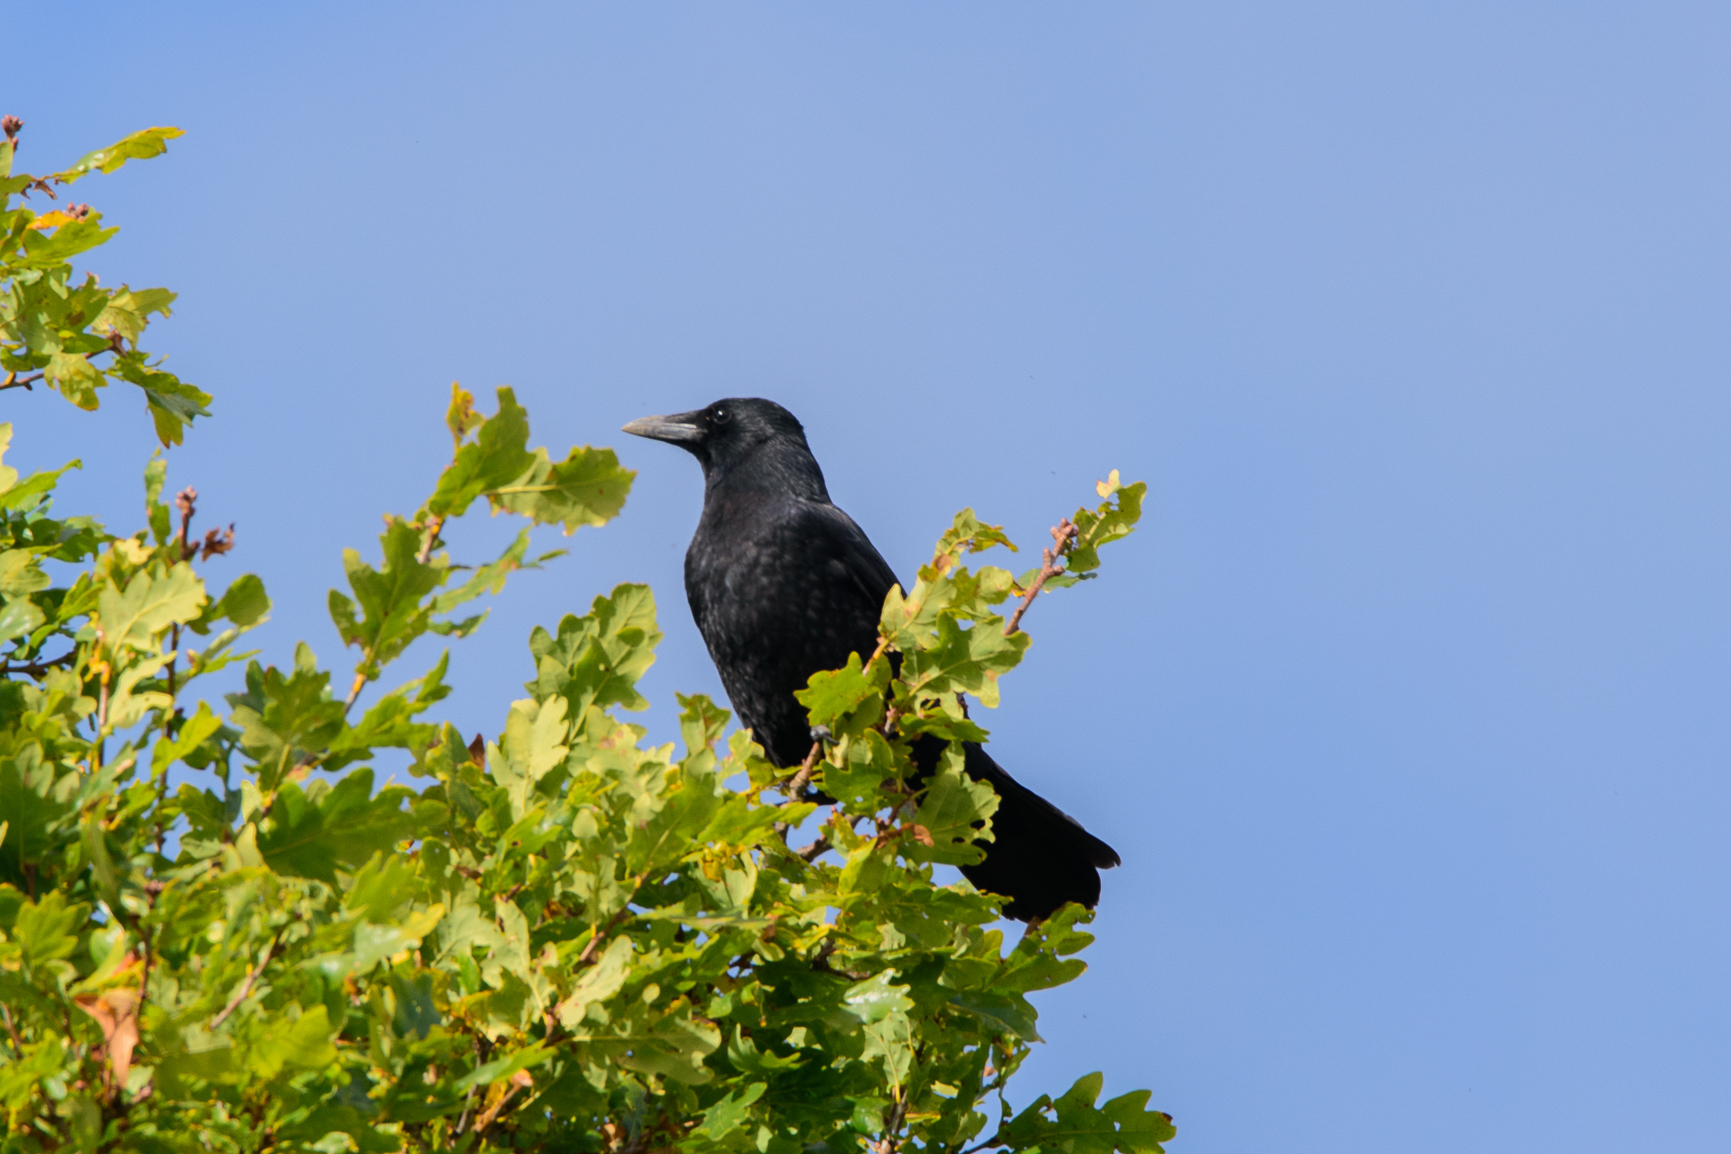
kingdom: Animalia
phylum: Chordata
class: Aves
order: Passeriformes
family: Corvidae
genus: Corvus
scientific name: Corvus corone
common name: Carrion crow
